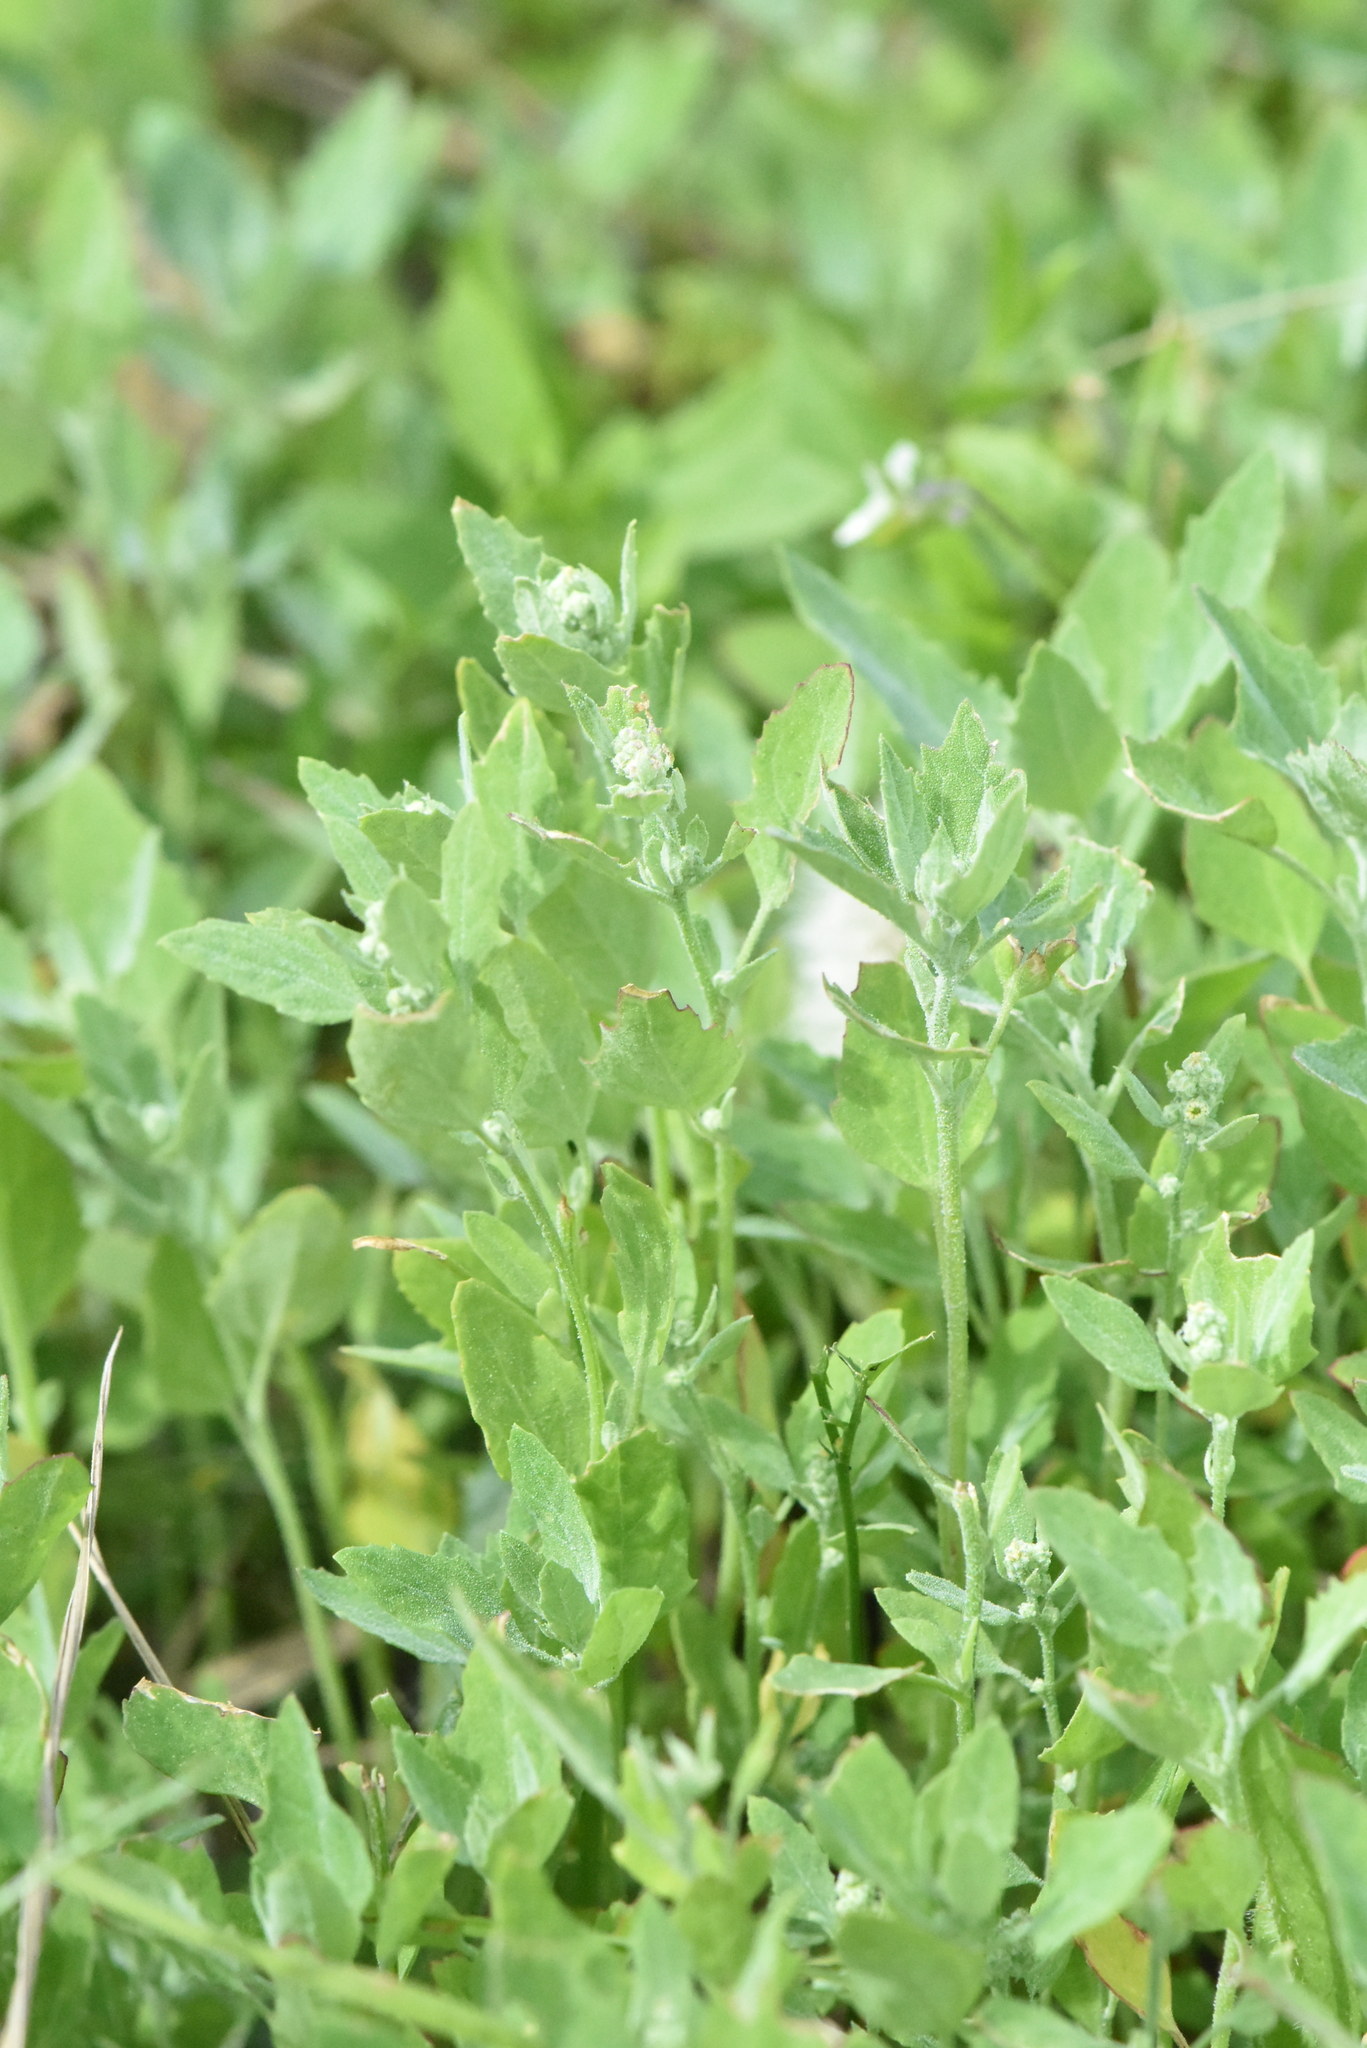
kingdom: Plantae
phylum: Tracheophyta
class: Magnoliopsida
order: Caryophyllales
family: Amaranthaceae
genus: Chenopodium
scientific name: Chenopodium album
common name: Fat-hen
